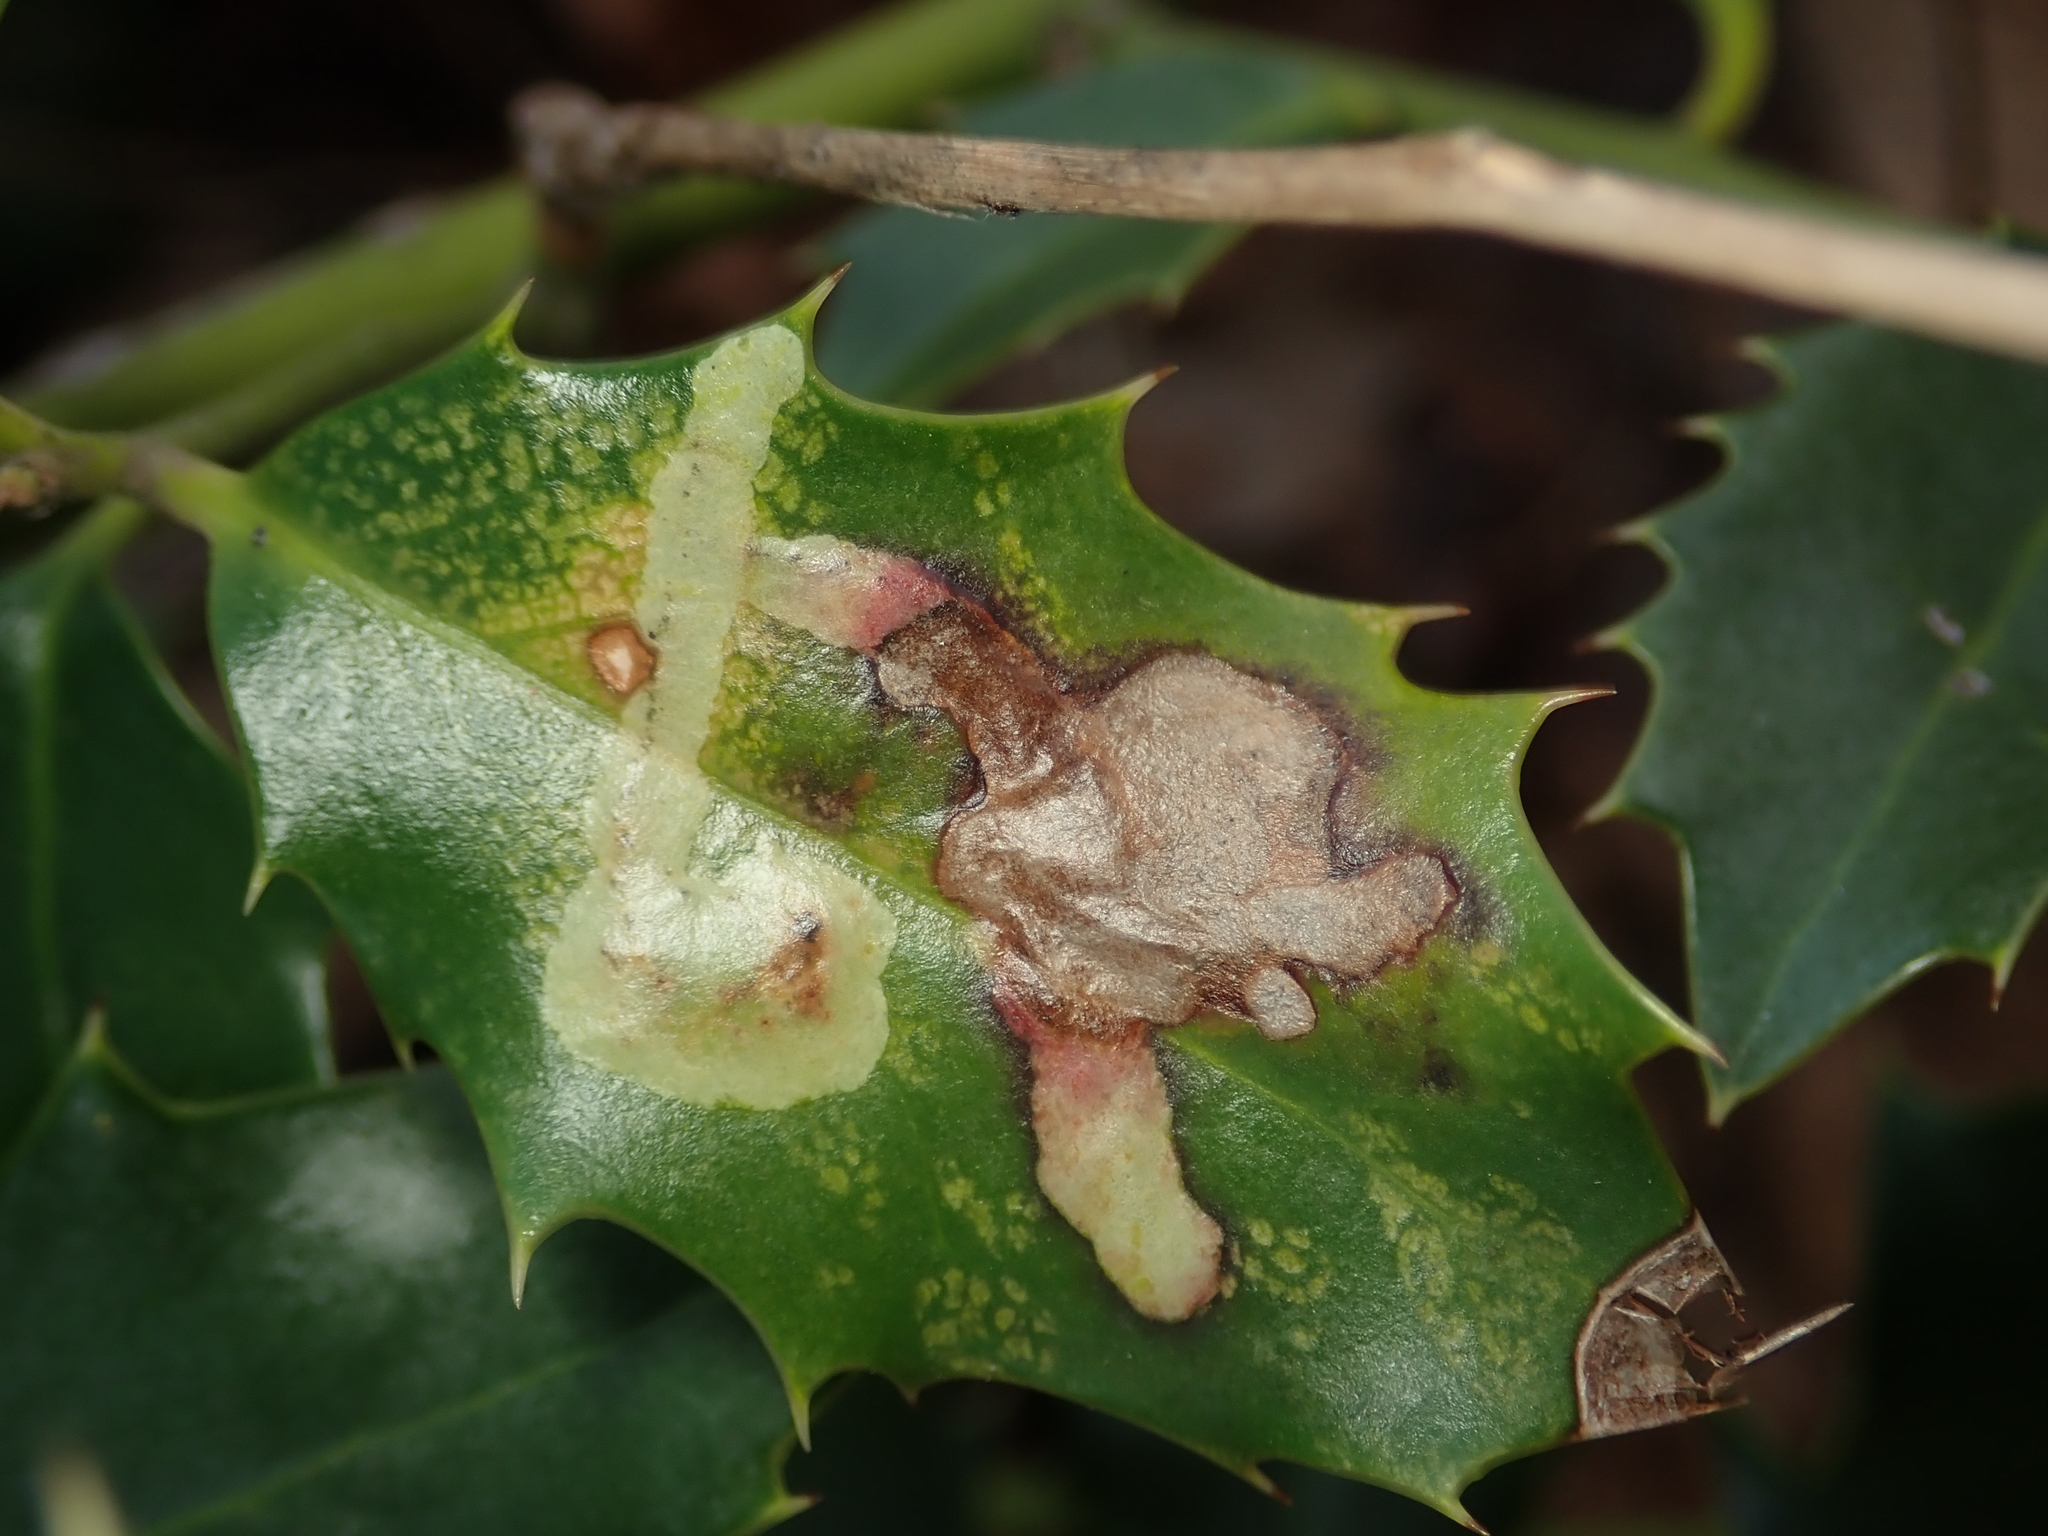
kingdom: Animalia
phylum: Arthropoda
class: Insecta
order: Diptera
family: Agromyzidae
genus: Phytomyza
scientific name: Phytomyza ilicis
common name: Holly leafminer
